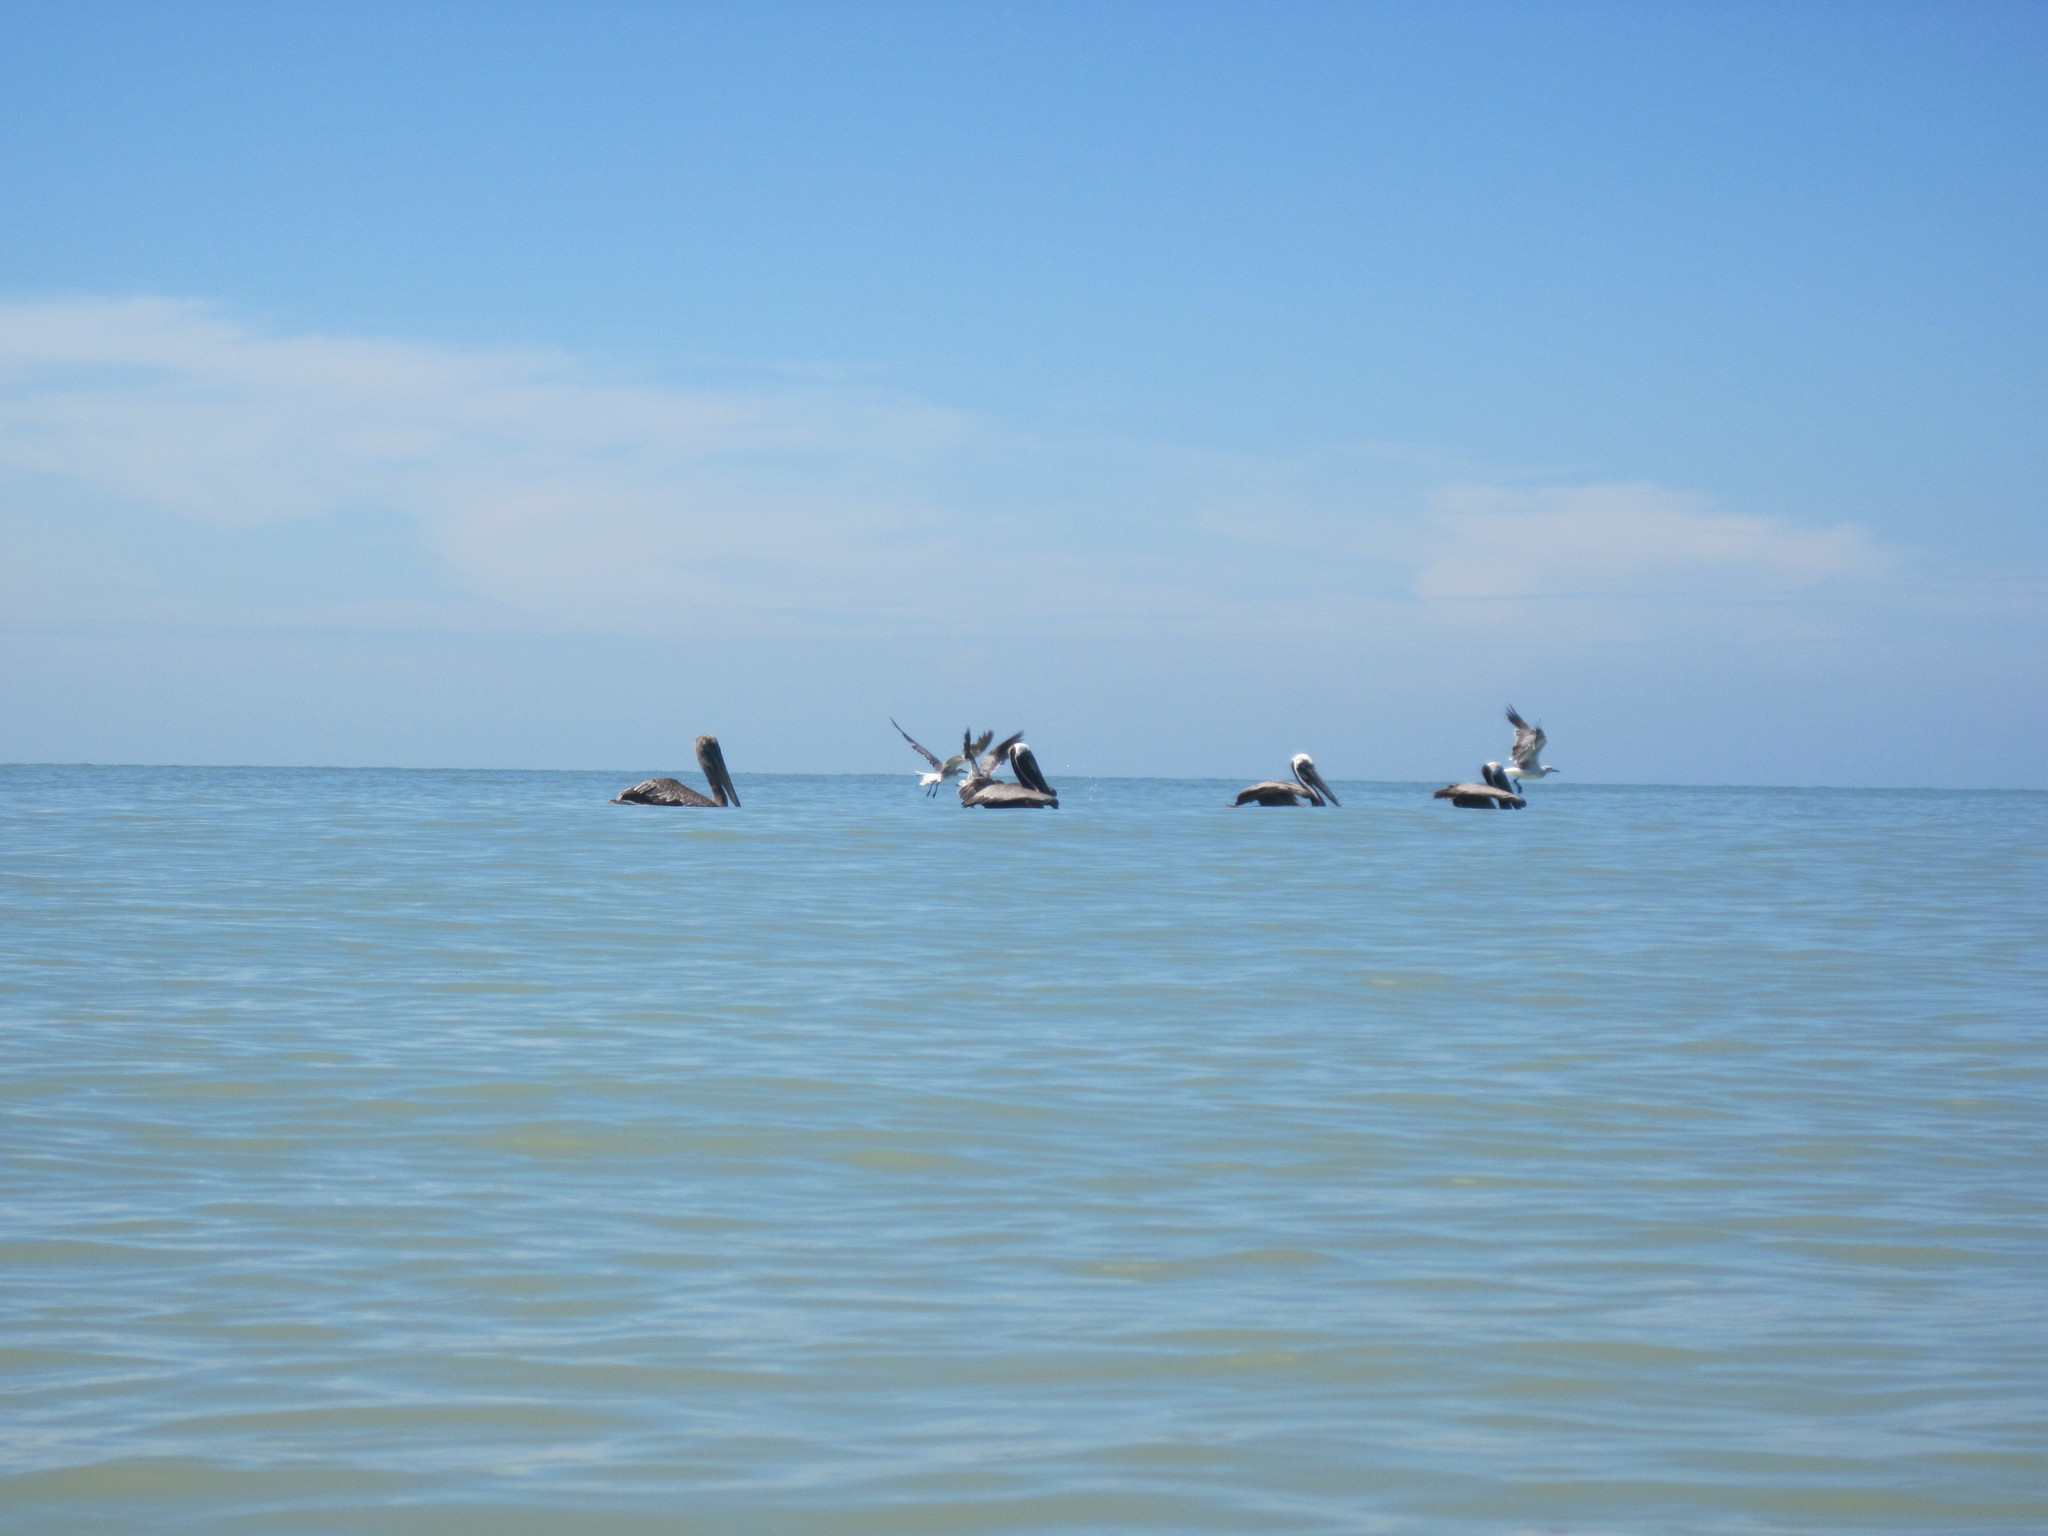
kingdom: Animalia
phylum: Chordata
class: Aves
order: Pelecaniformes
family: Pelecanidae
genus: Pelecanus
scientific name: Pelecanus occidentalis
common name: Brown pelican
